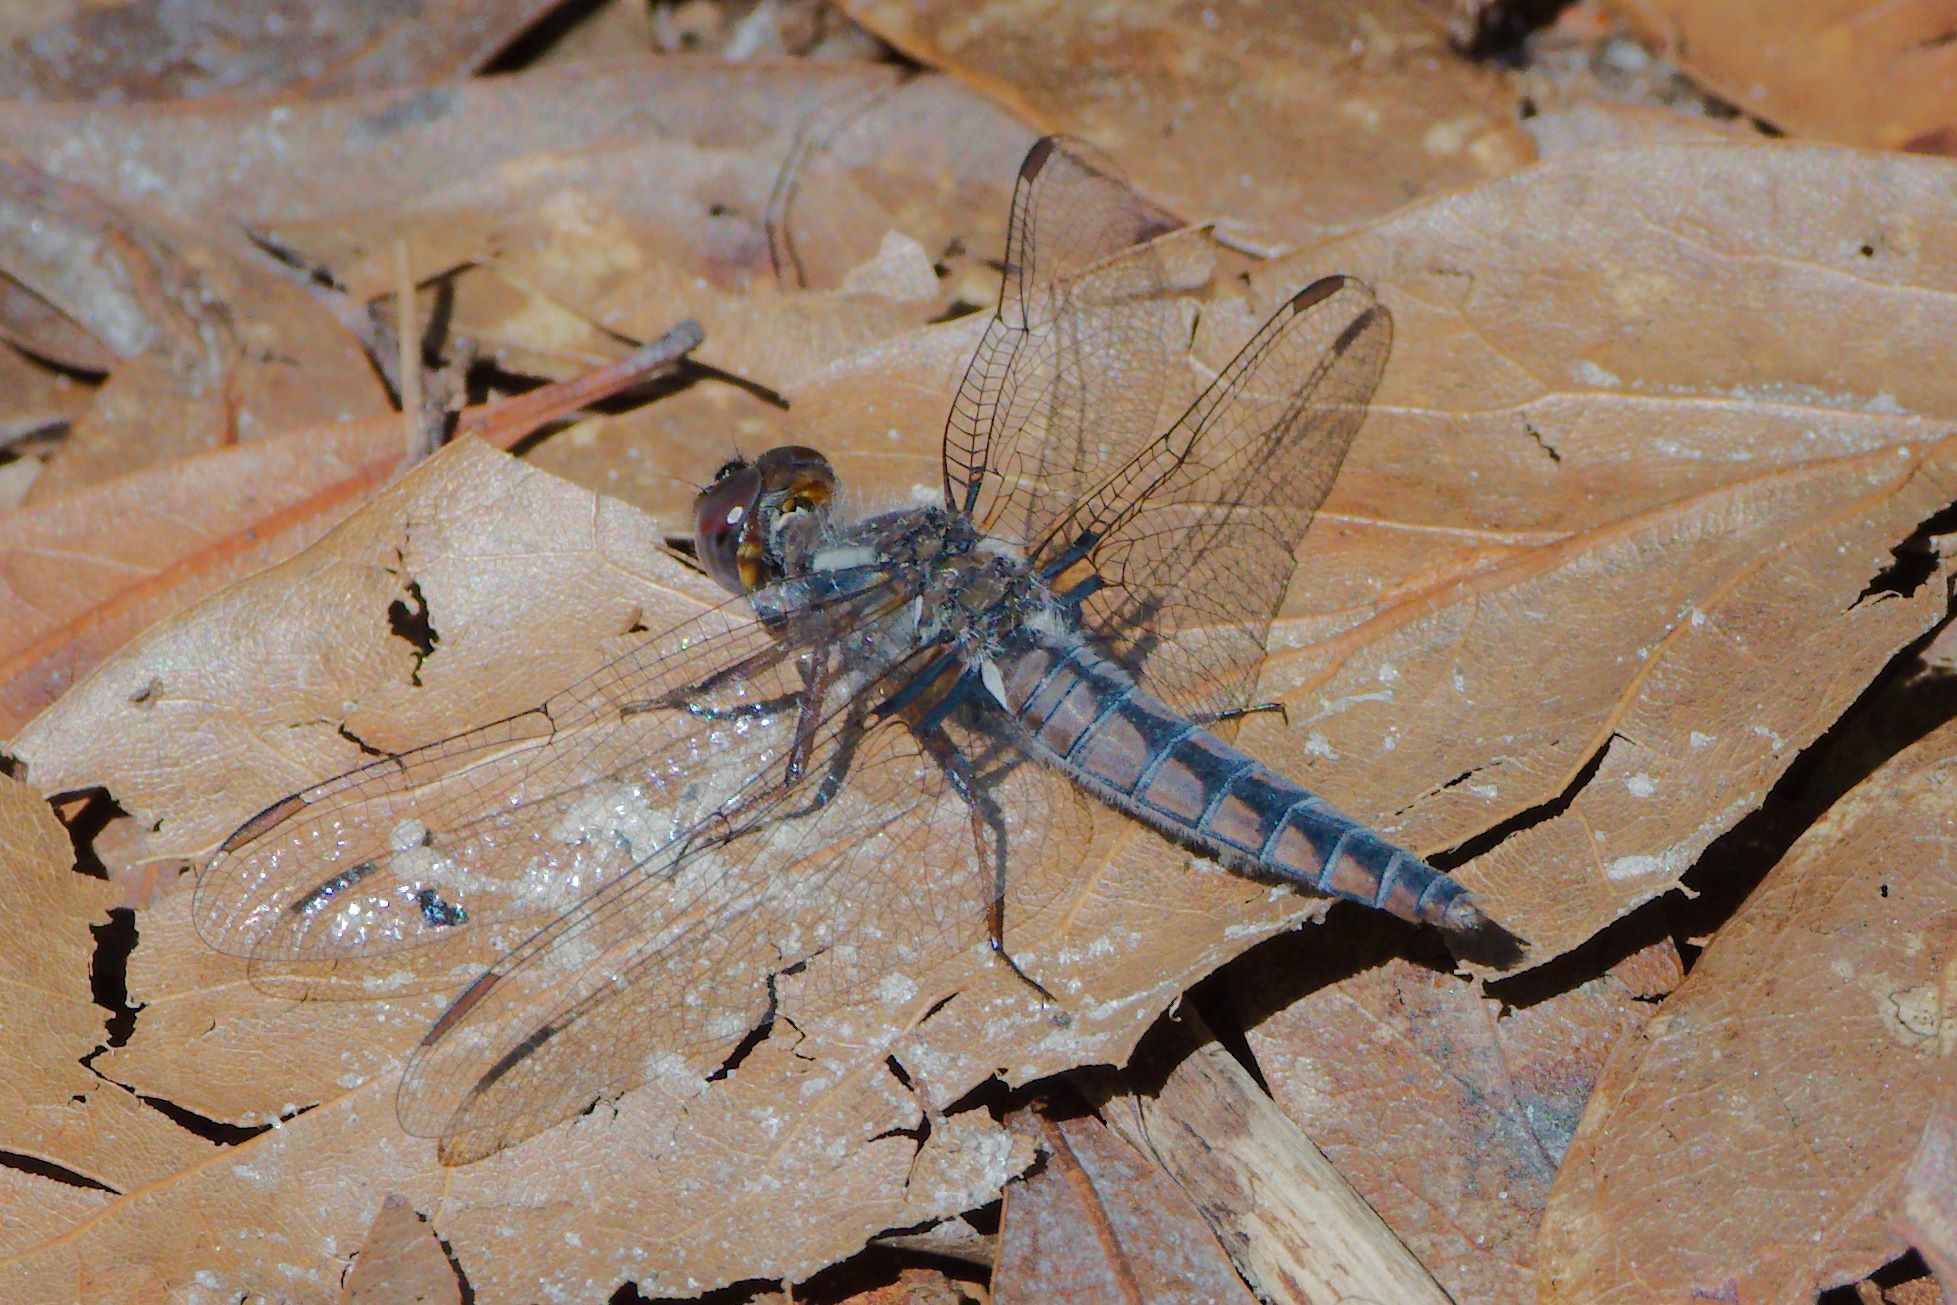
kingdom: Animalia
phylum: Arthropoda
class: Insecta
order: Odonata
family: Libellulidae
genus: Ladona
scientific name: Ladona deplanata
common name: Blue corporal
